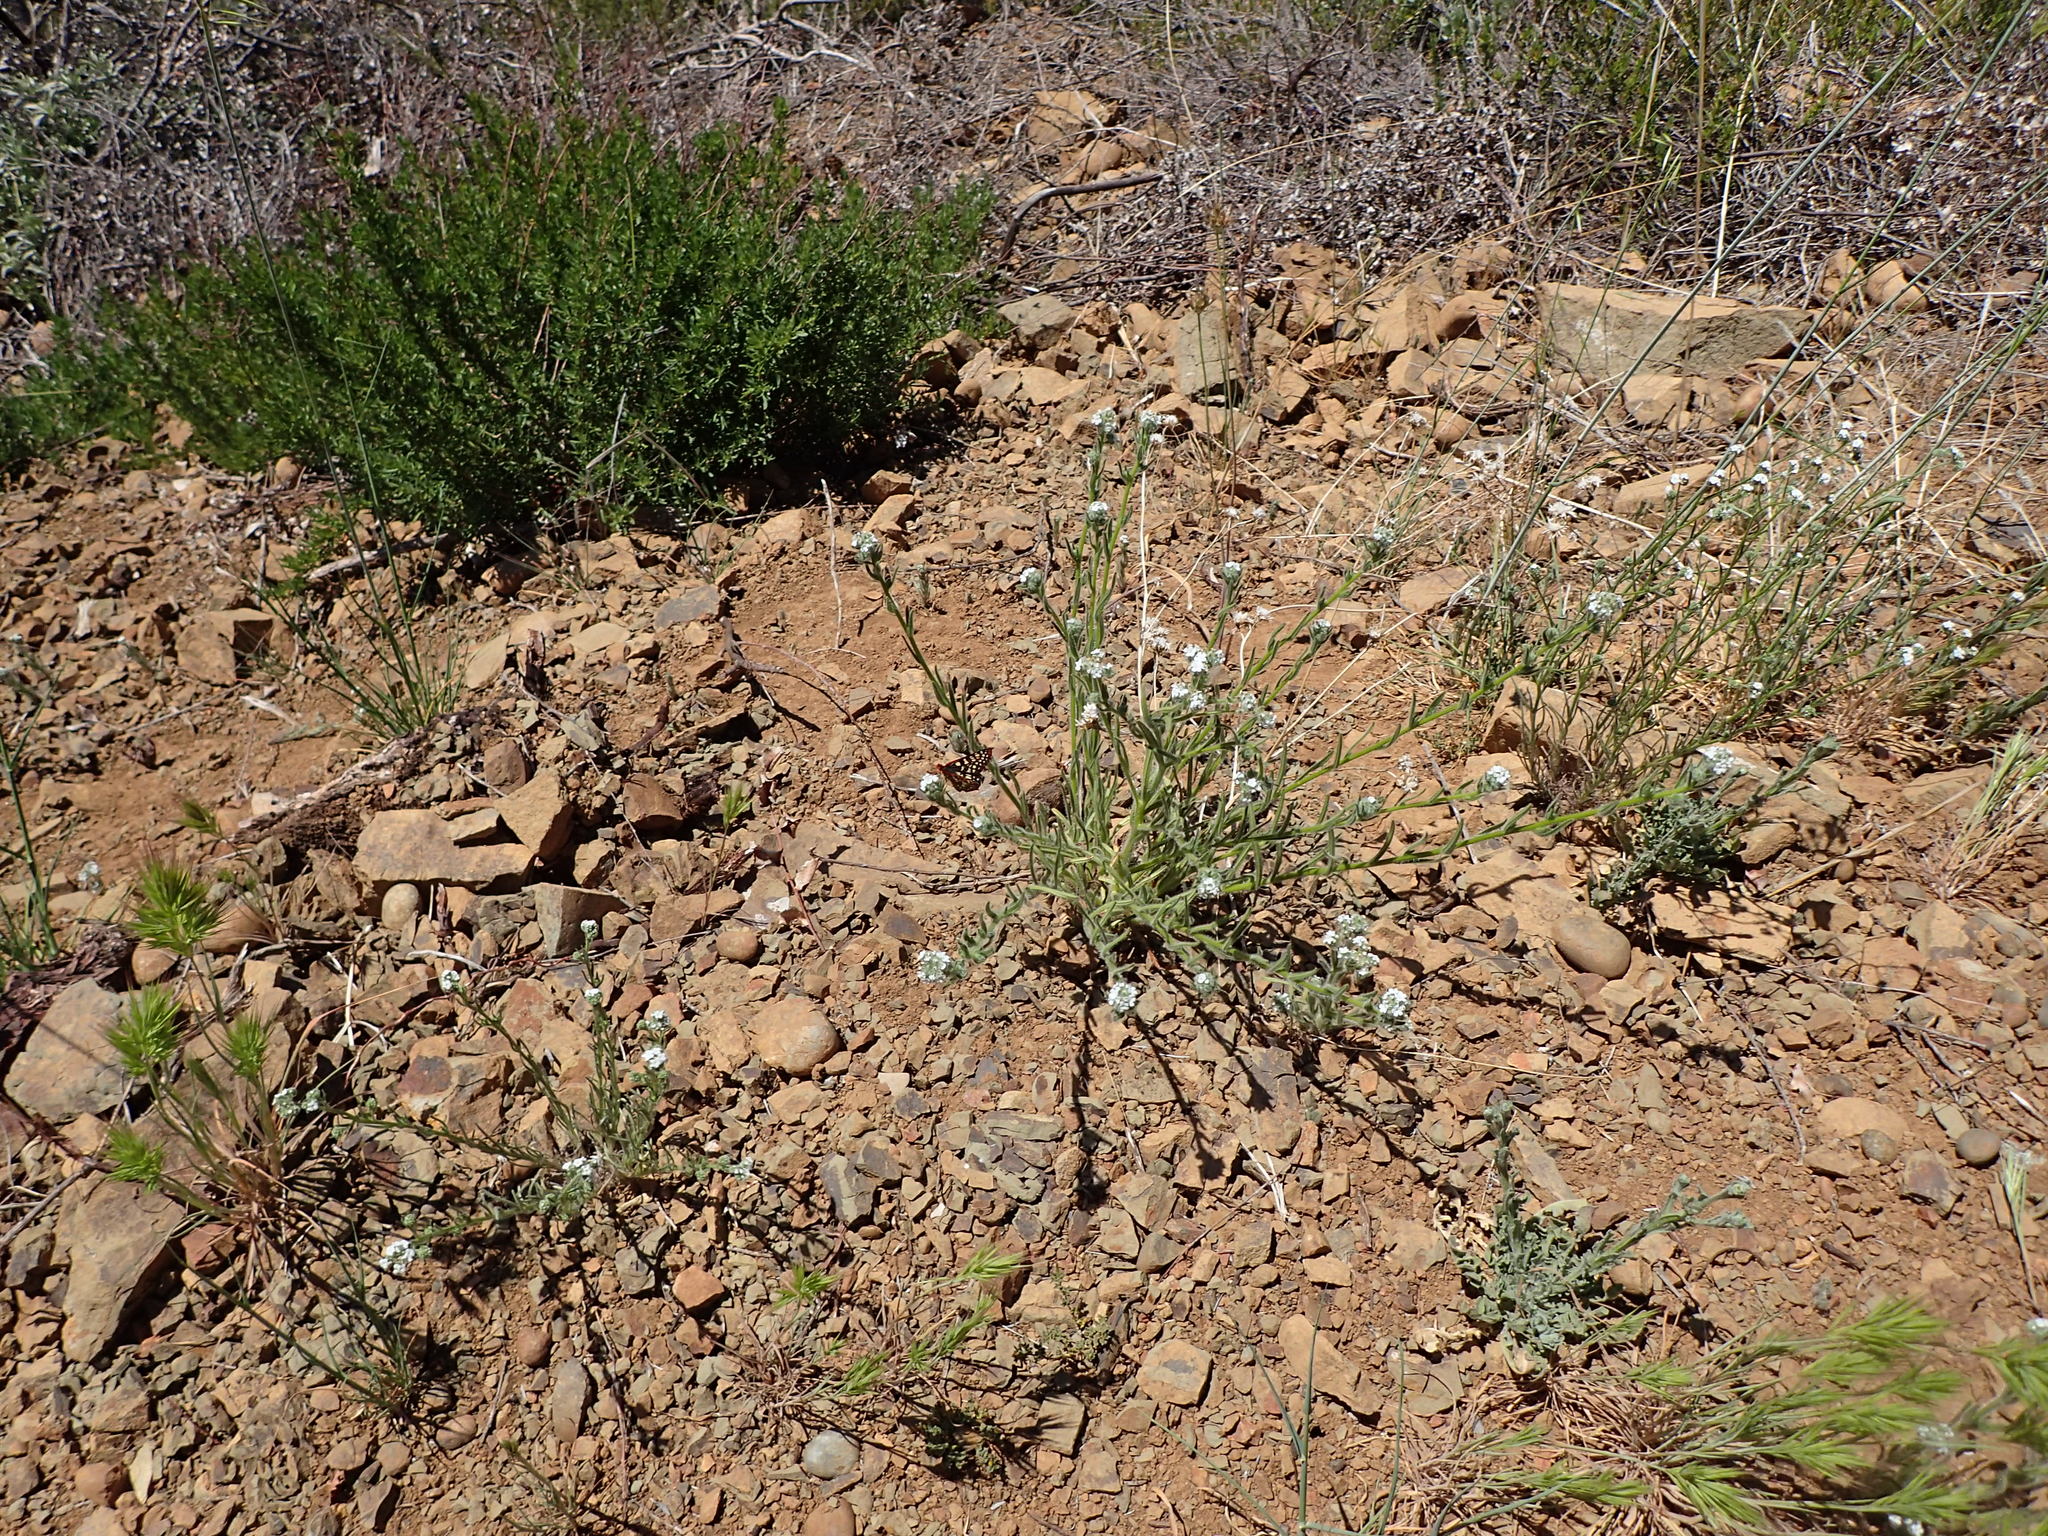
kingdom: Animalia
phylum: Arthropoda
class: Insecta
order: Lepidoptera
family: Nymphalidae
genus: Occidryas
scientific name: Occidryas chalcedona
